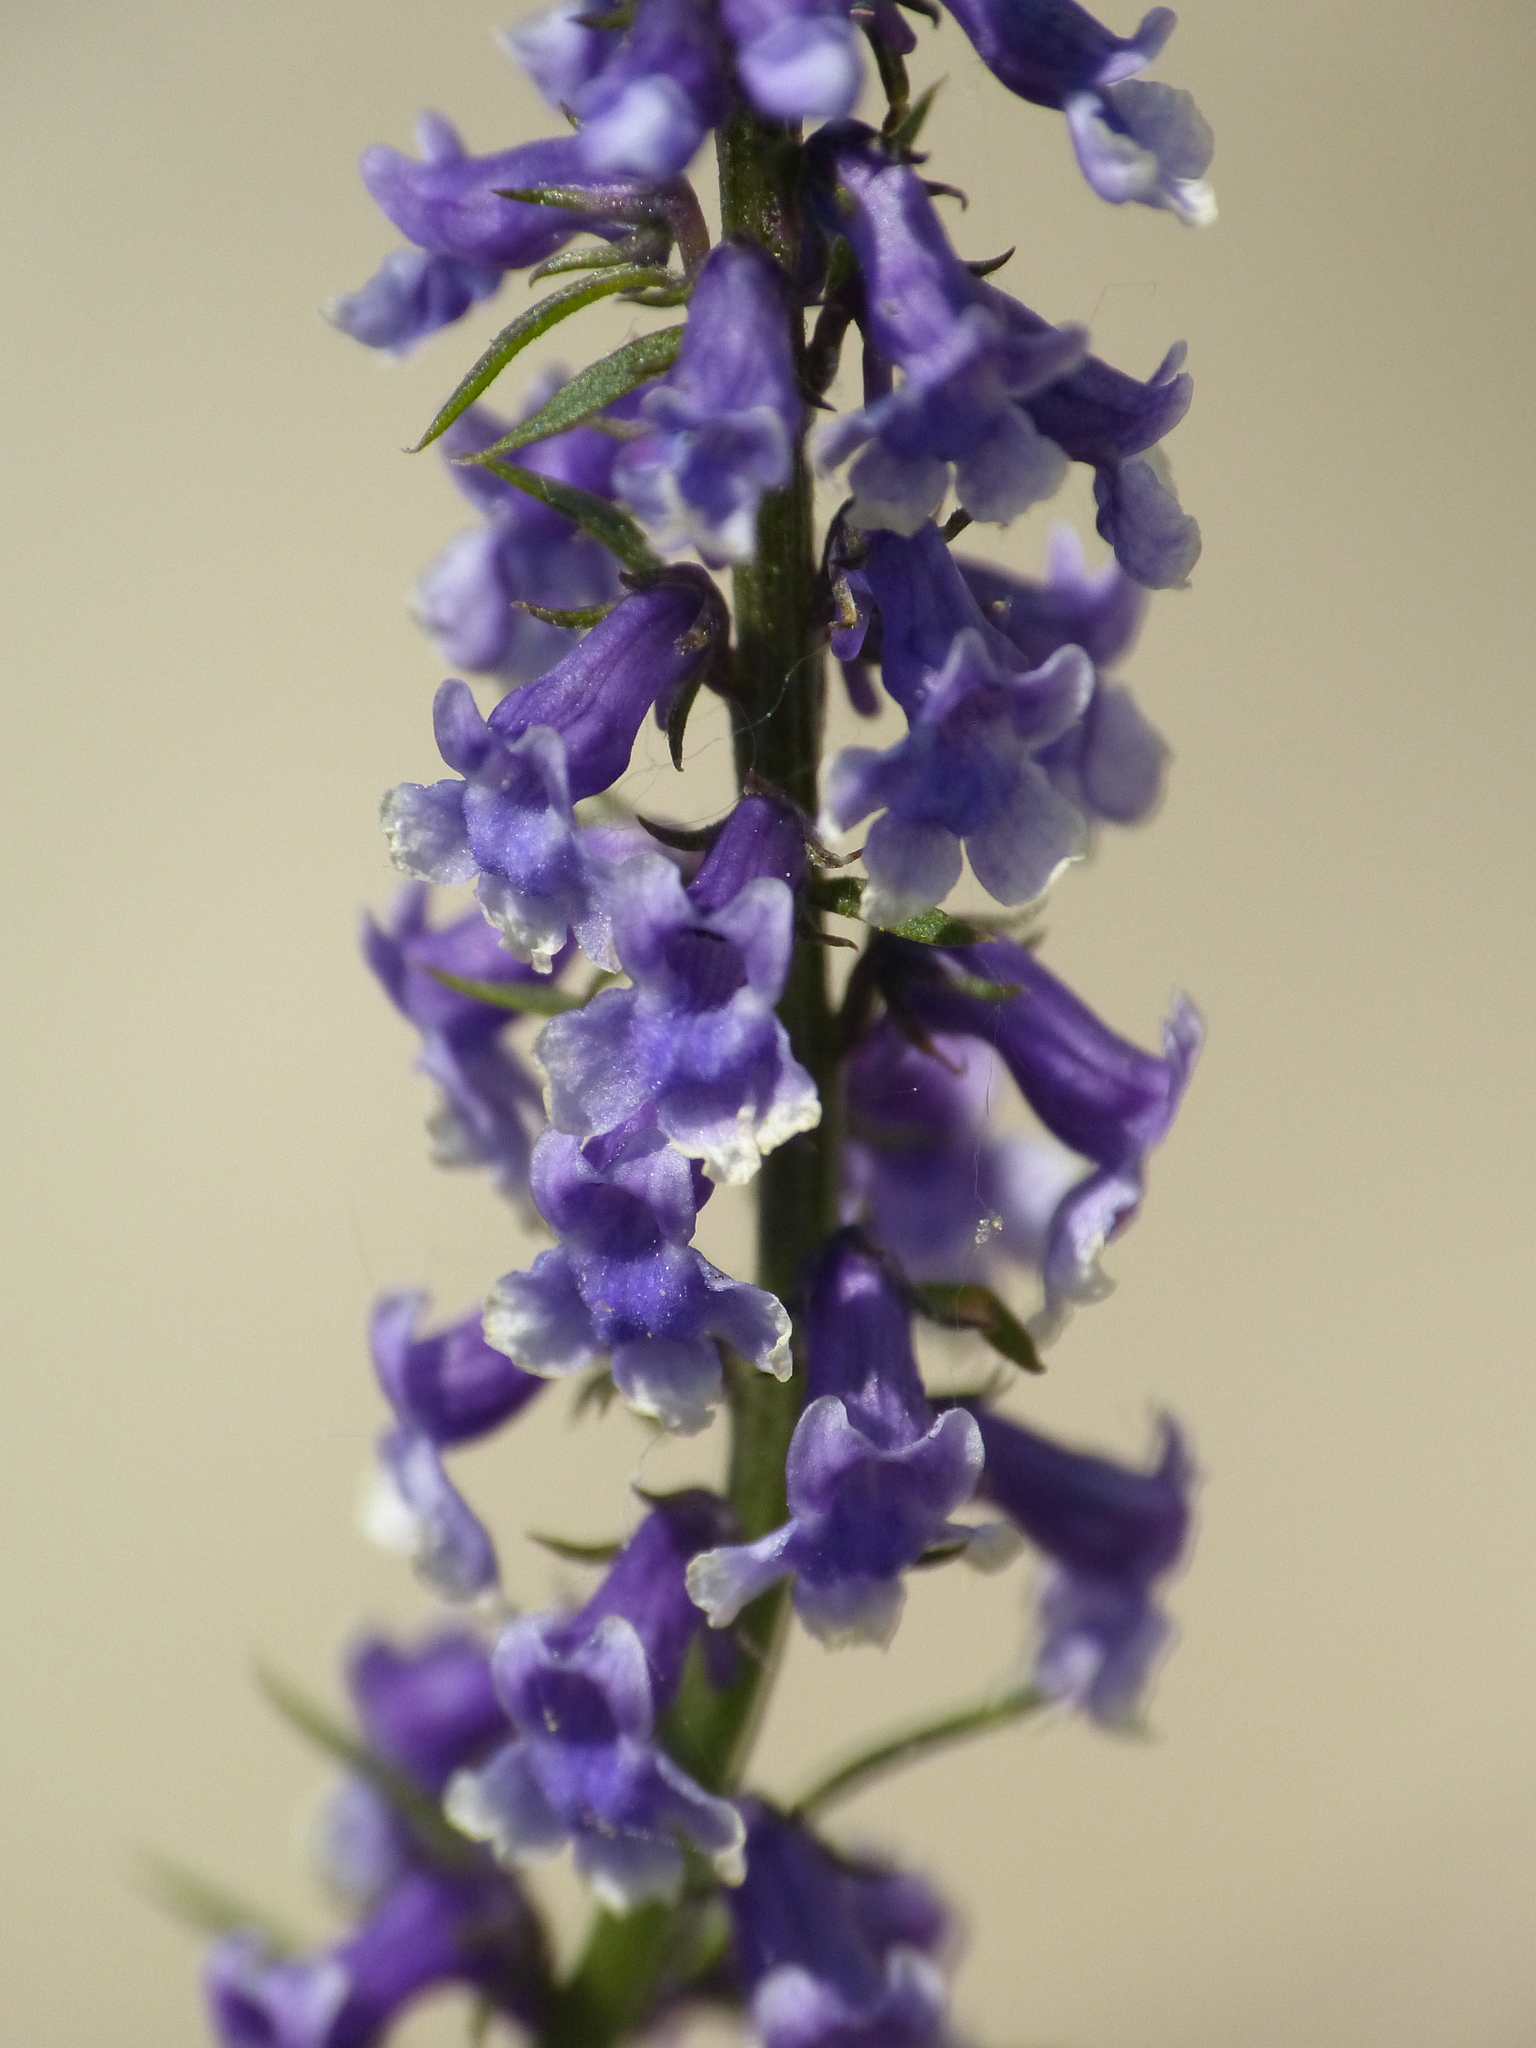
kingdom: Plantae
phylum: Tracheophyta
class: Magnoliopsida
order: Lamiales
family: Plantaginaceae
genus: Anarrhinum
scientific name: Anarrhinum bellidifolium
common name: Daisy-leaved toadflax
